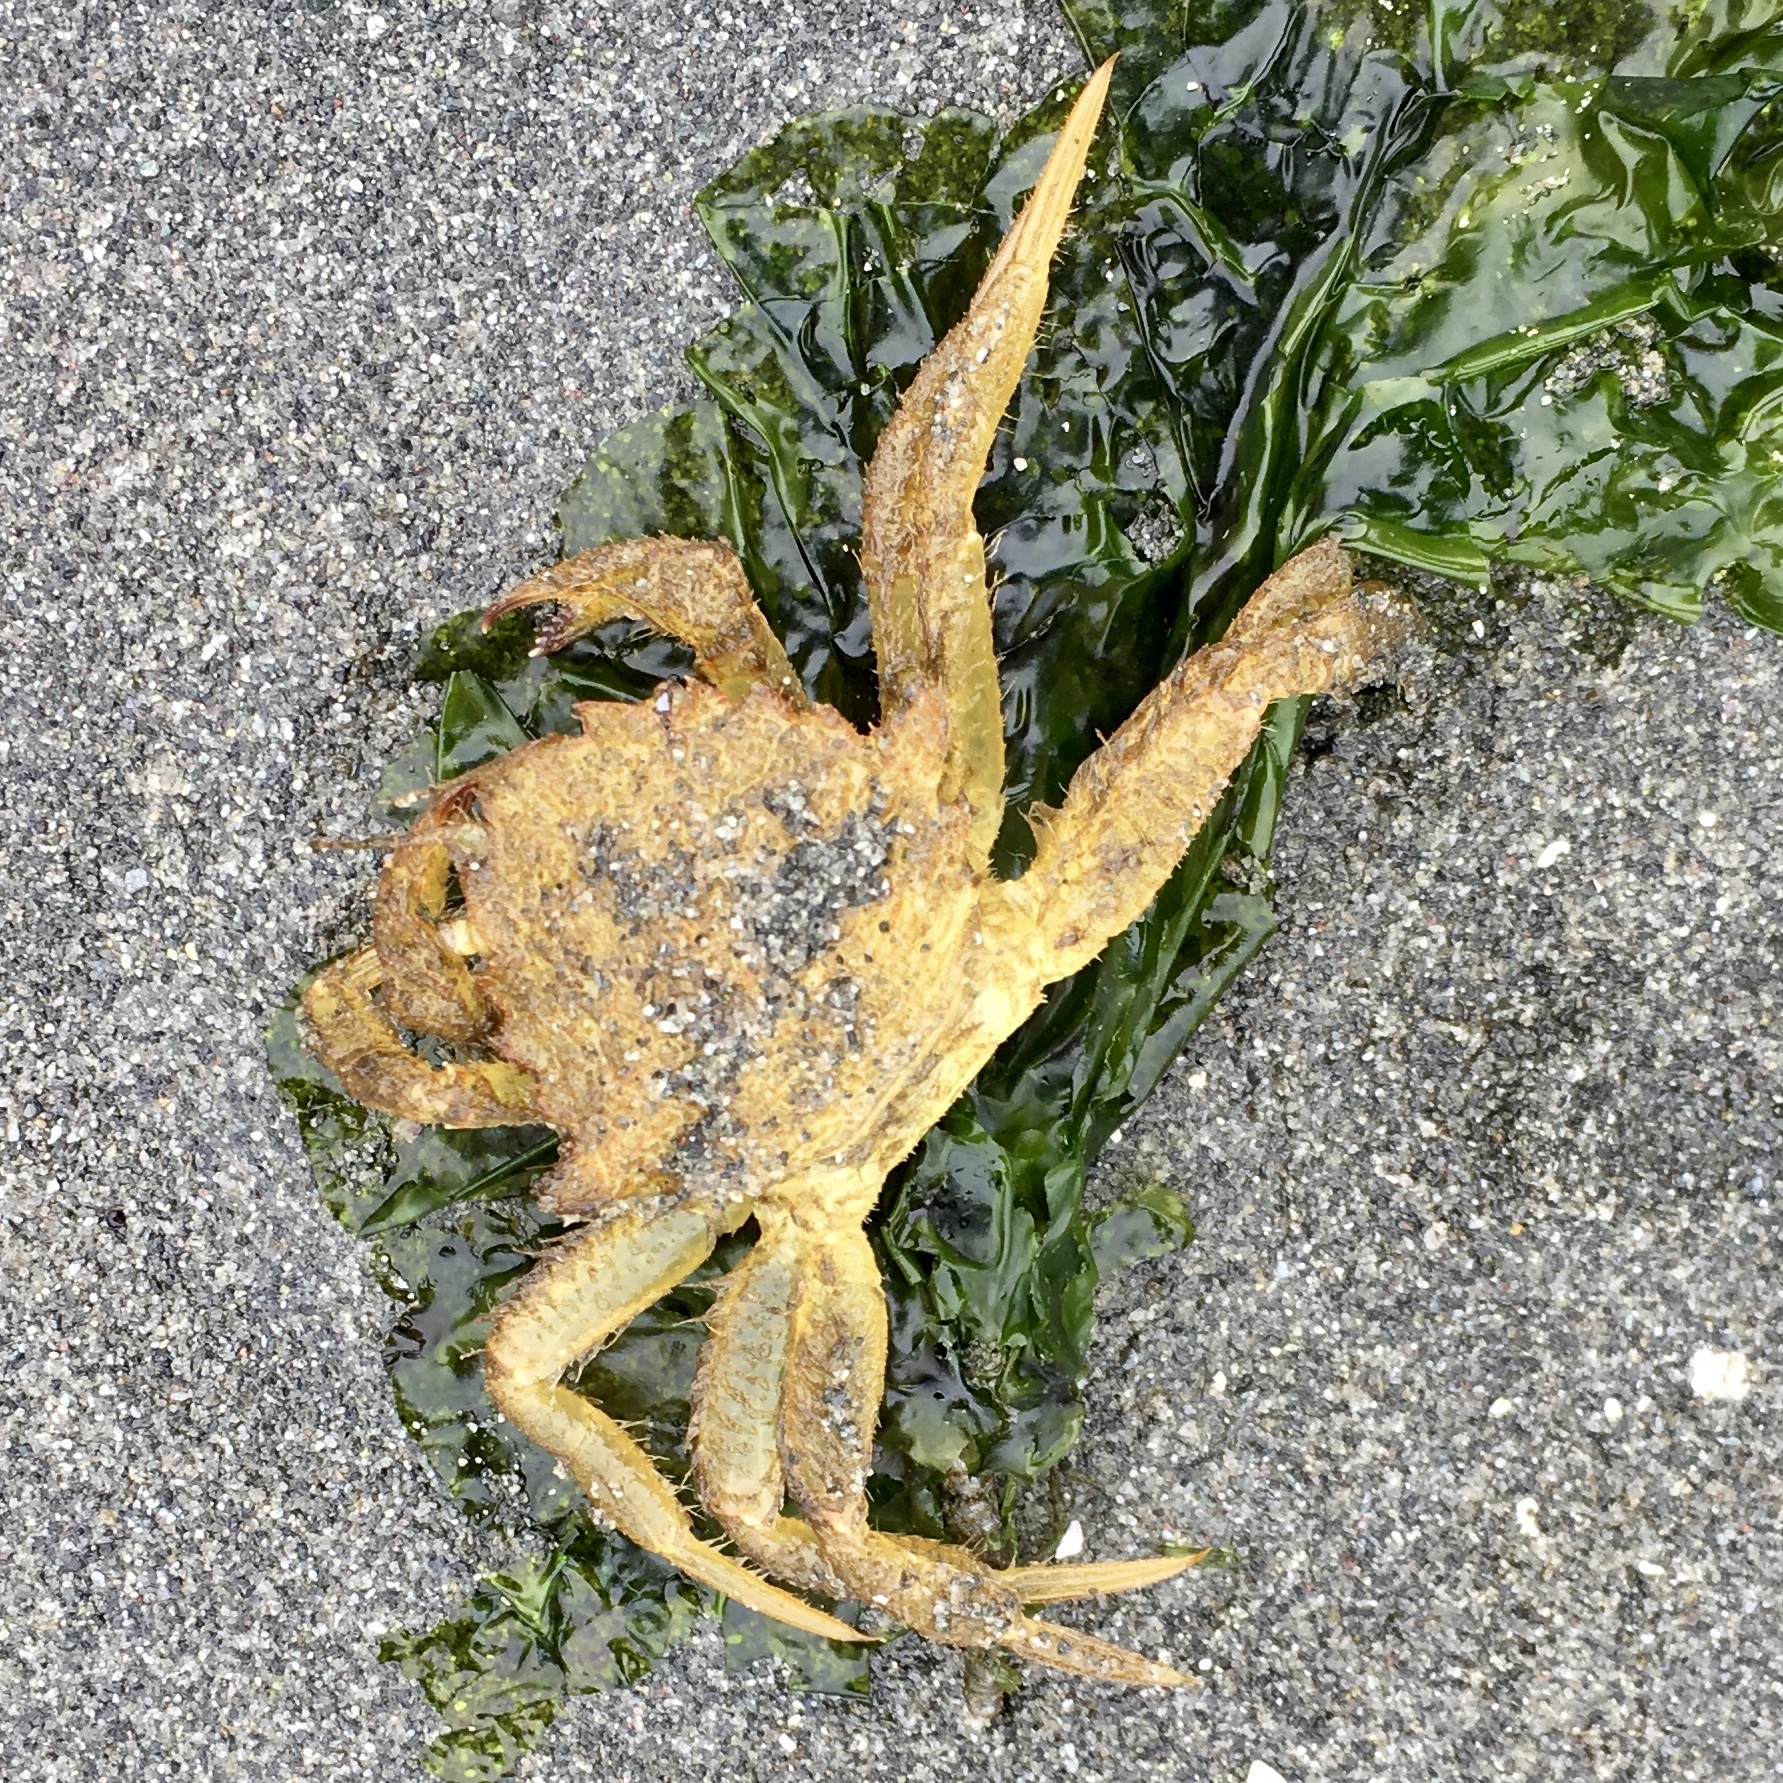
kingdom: Animalia
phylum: Arthropoda
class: Malacostraca
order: Decapoda
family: Cheiragonidae
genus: Telmessus
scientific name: Telmessus cheiragonus
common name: Helmet crab
